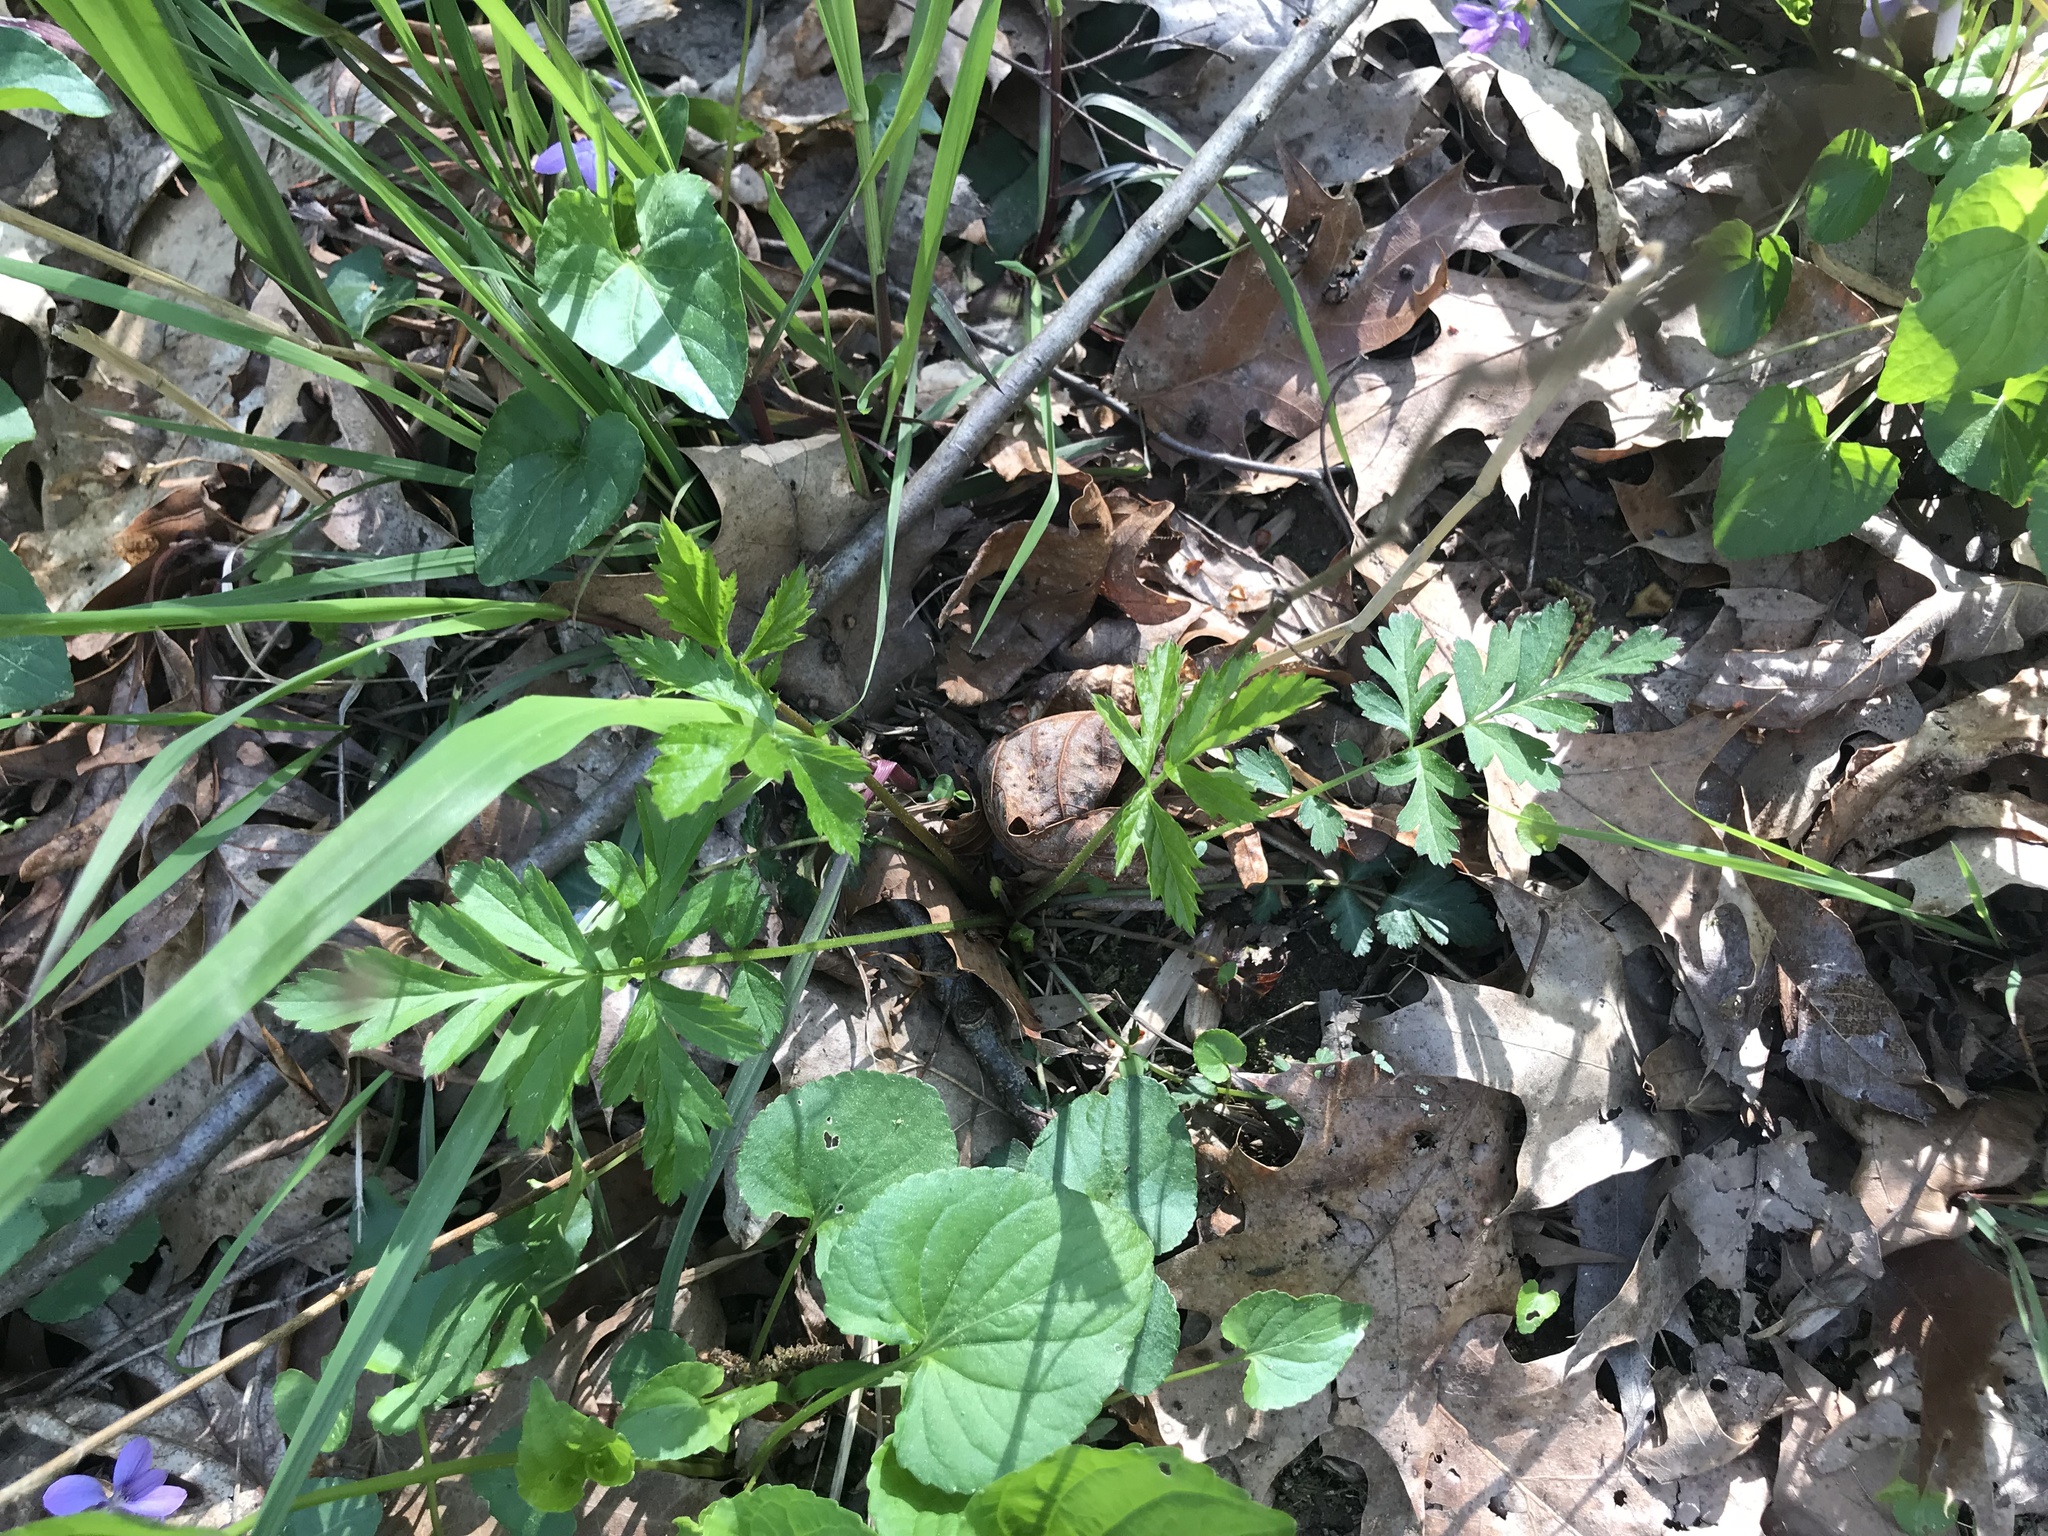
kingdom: Plantae
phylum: Tracheophyta
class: Magnoliopsida
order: Rosales
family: Rosaceae
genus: Geum
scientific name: Geum canadense
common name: White avens
